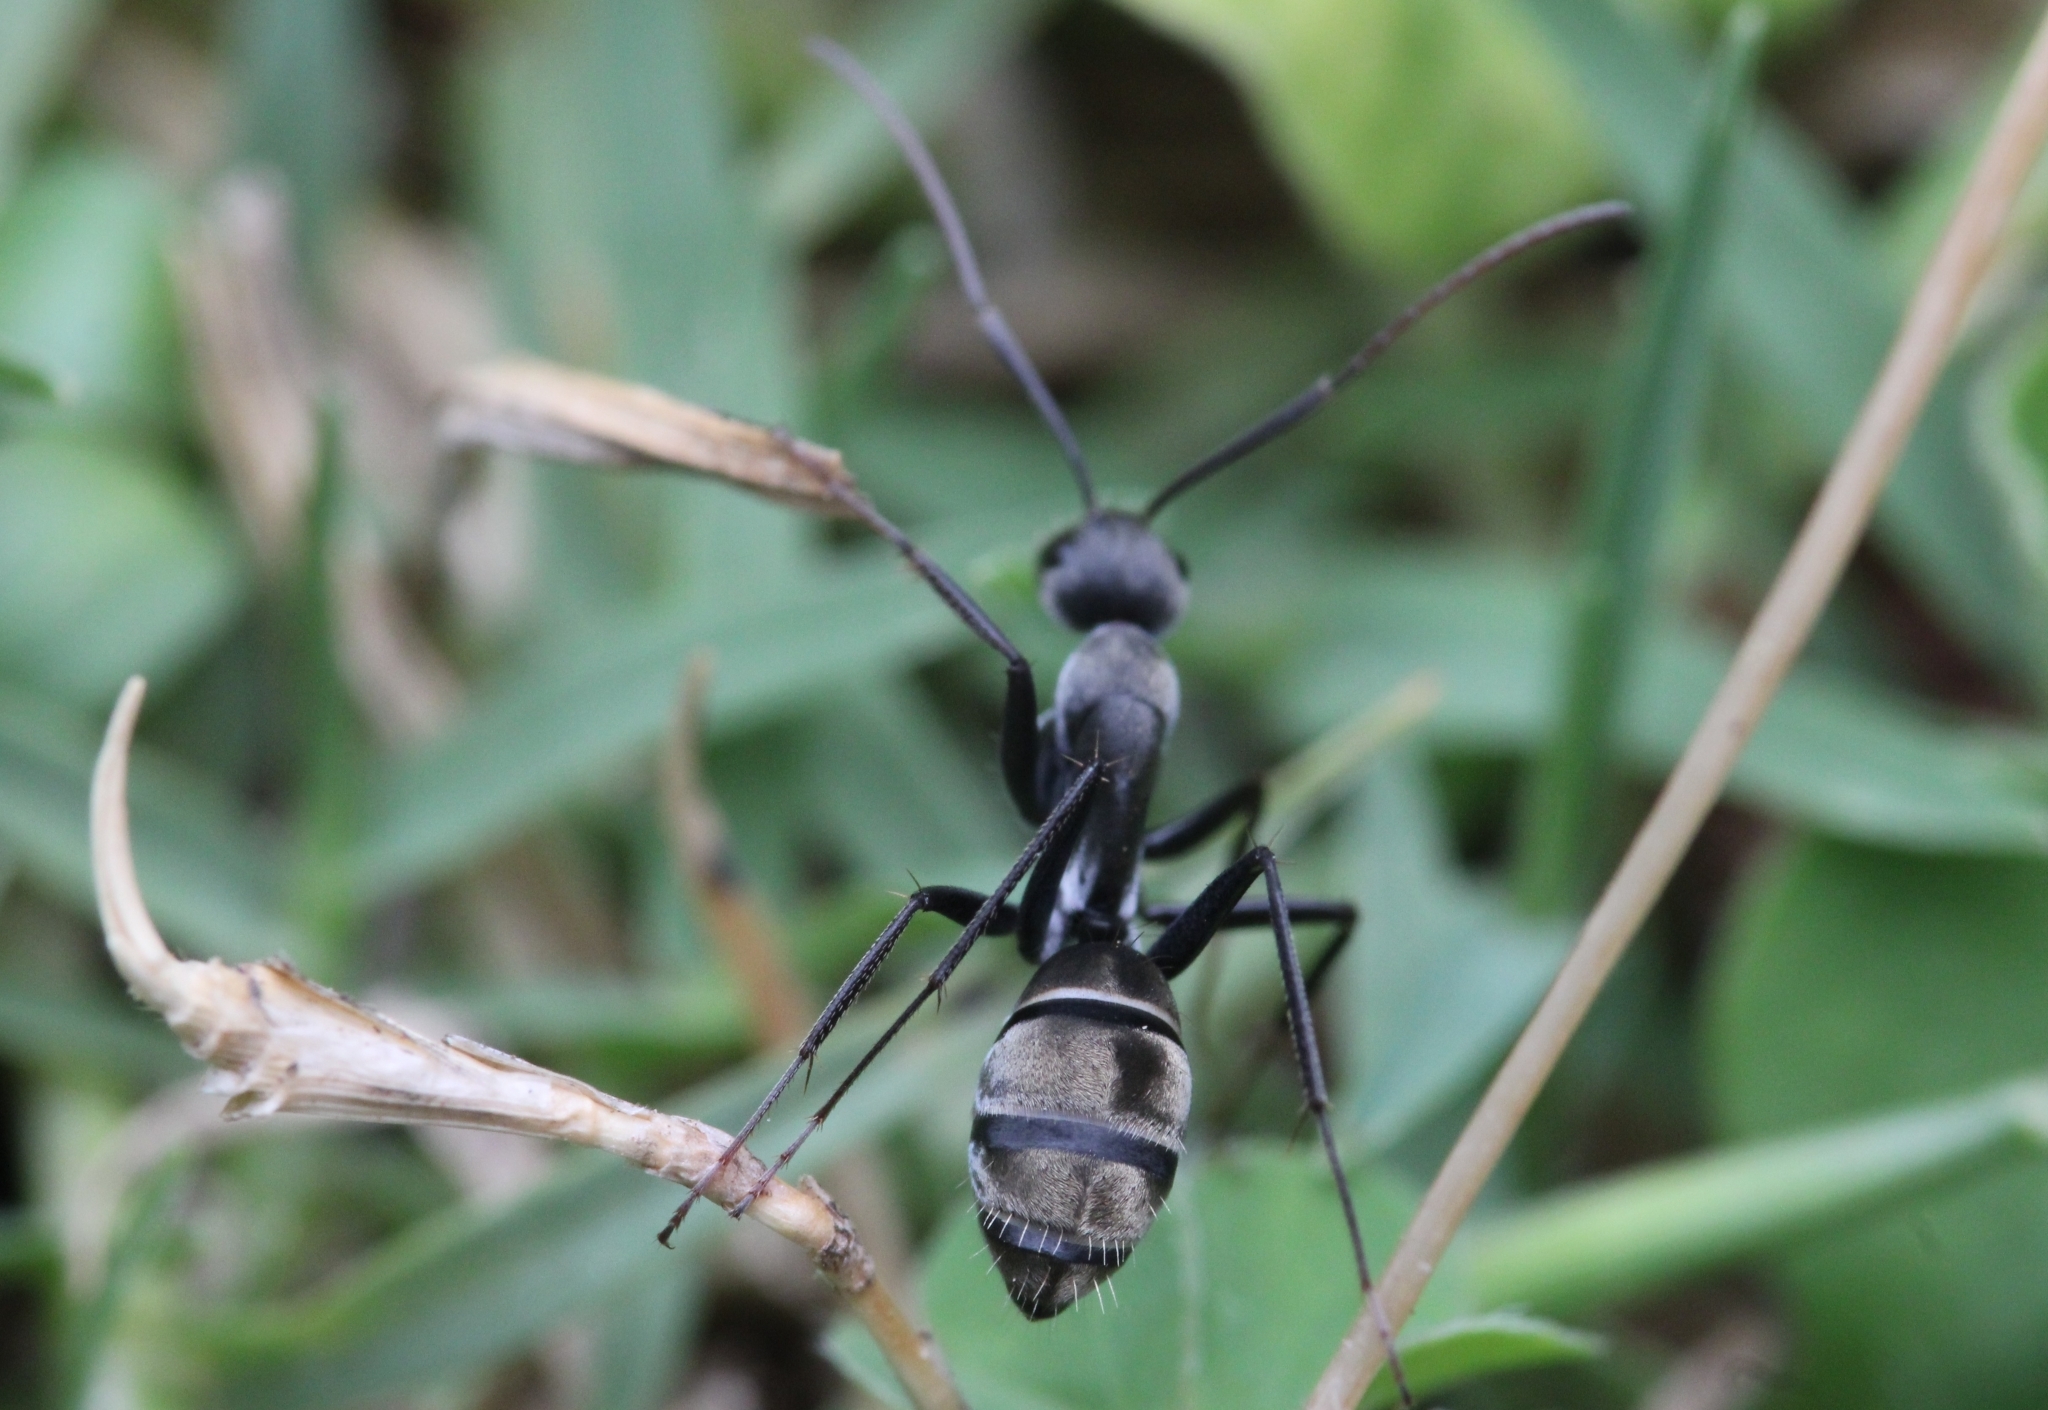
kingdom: Animalia
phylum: Arthropoda
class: Insecta
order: Hymenoptera
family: Formicidae
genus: Camponotus
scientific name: Camponotus cinctellus
